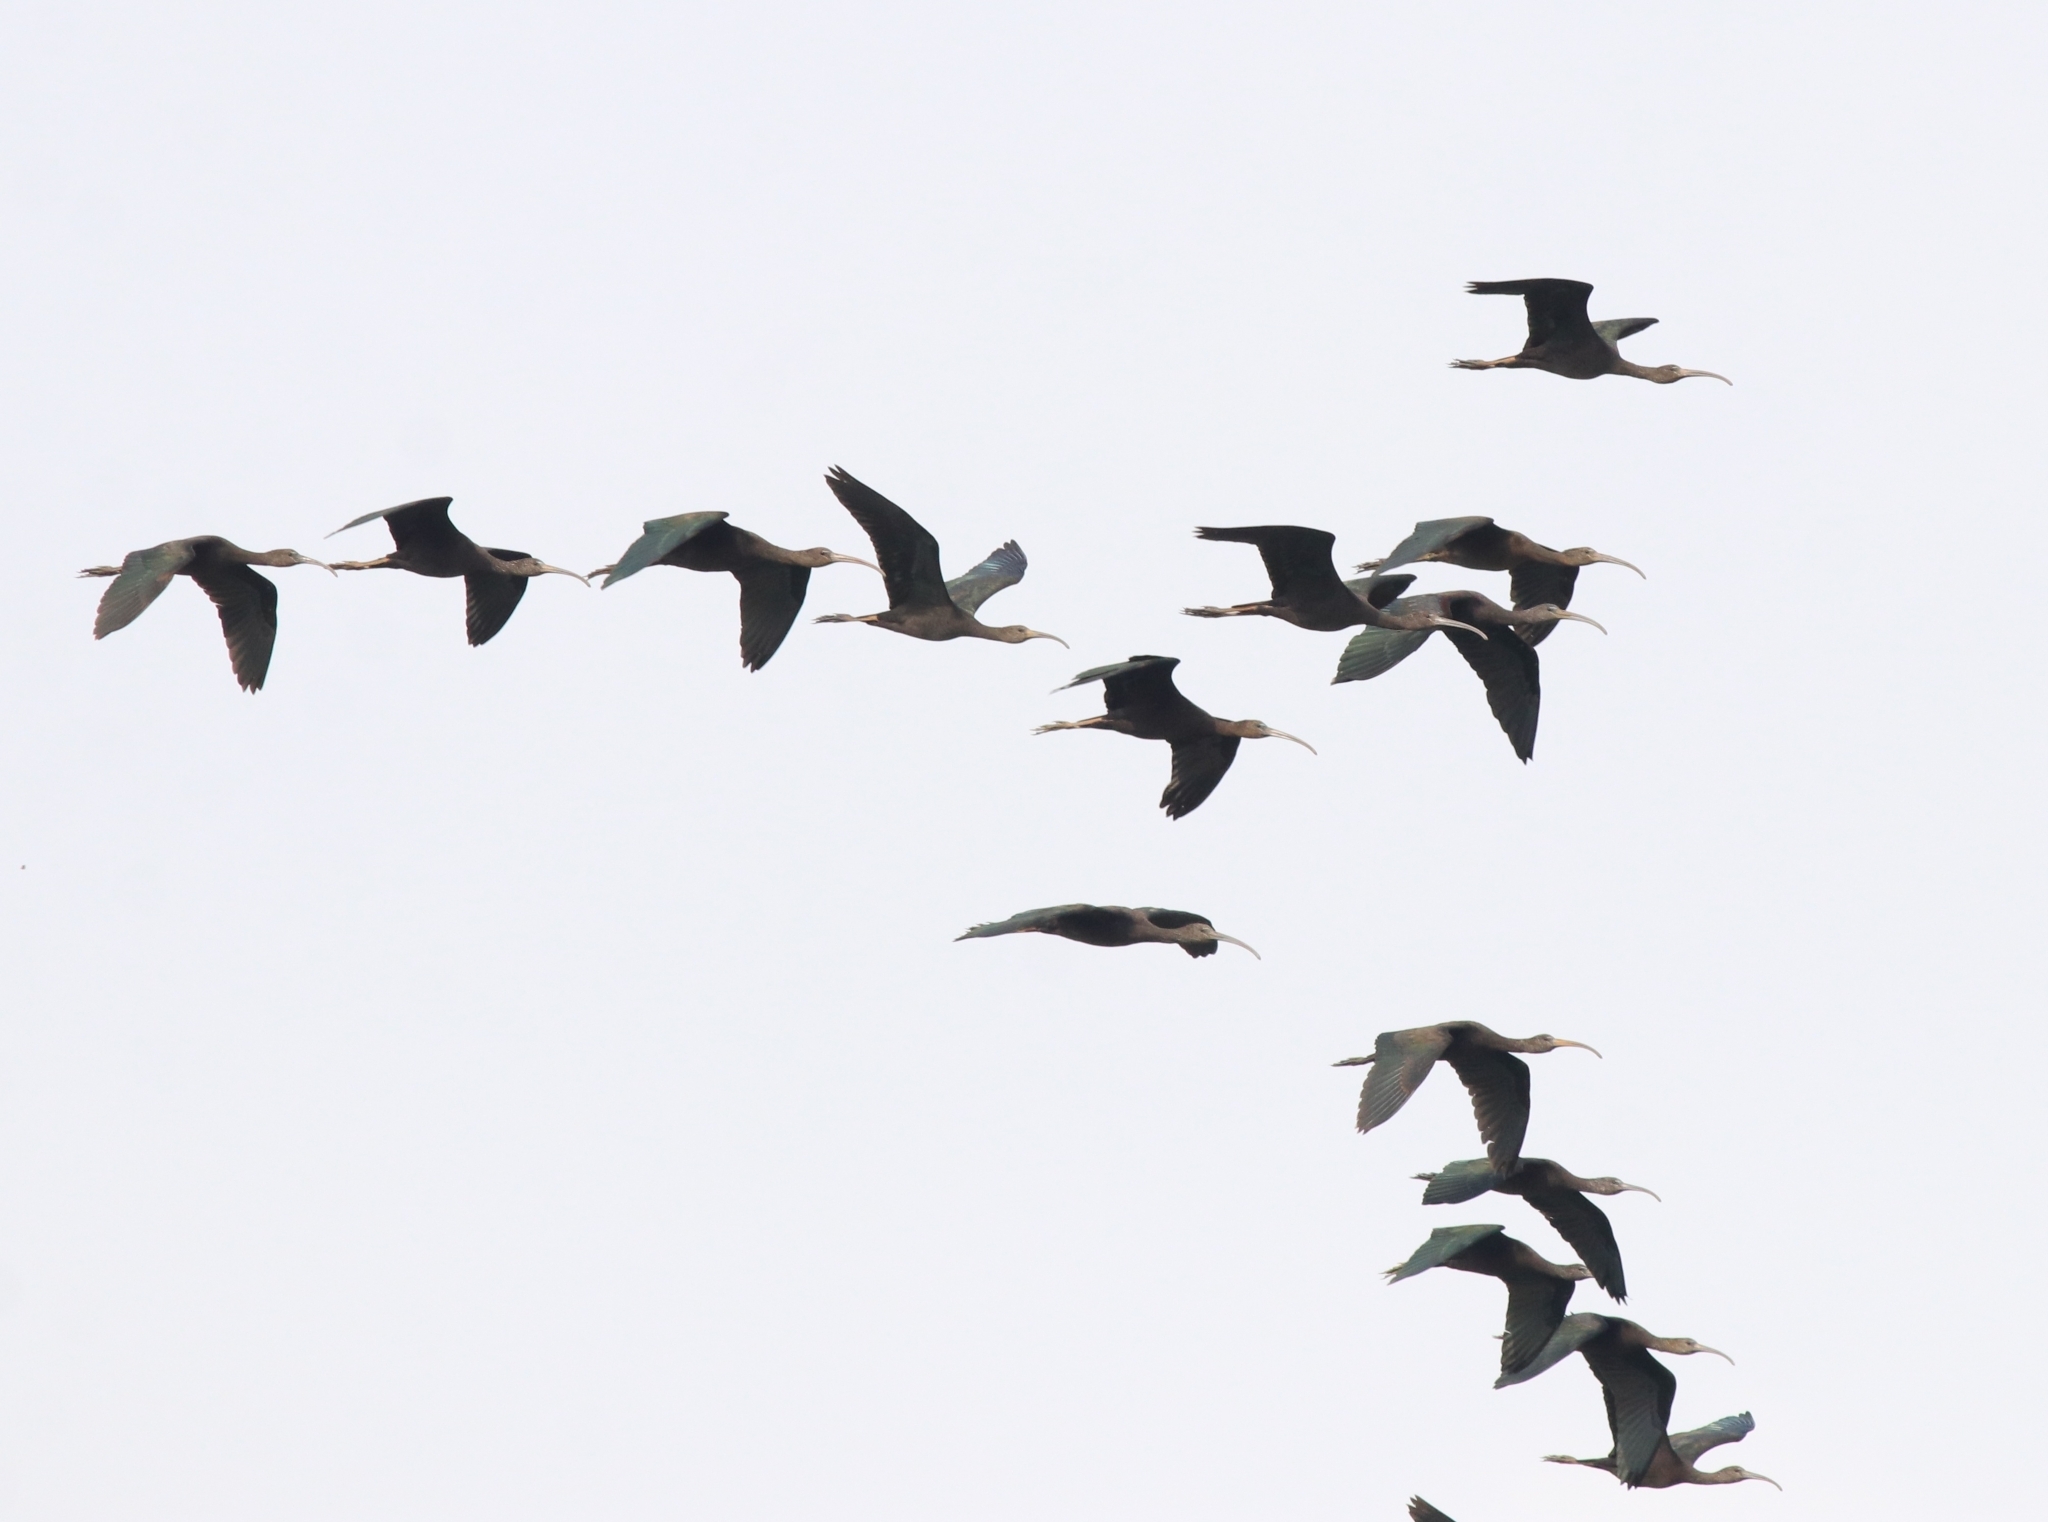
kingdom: Animalia
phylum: Chordata
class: Aves
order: Pelecaniformes
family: Threskiornithidae
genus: Plegadis
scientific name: Plegadis falcinellus
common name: Glossy ibis
